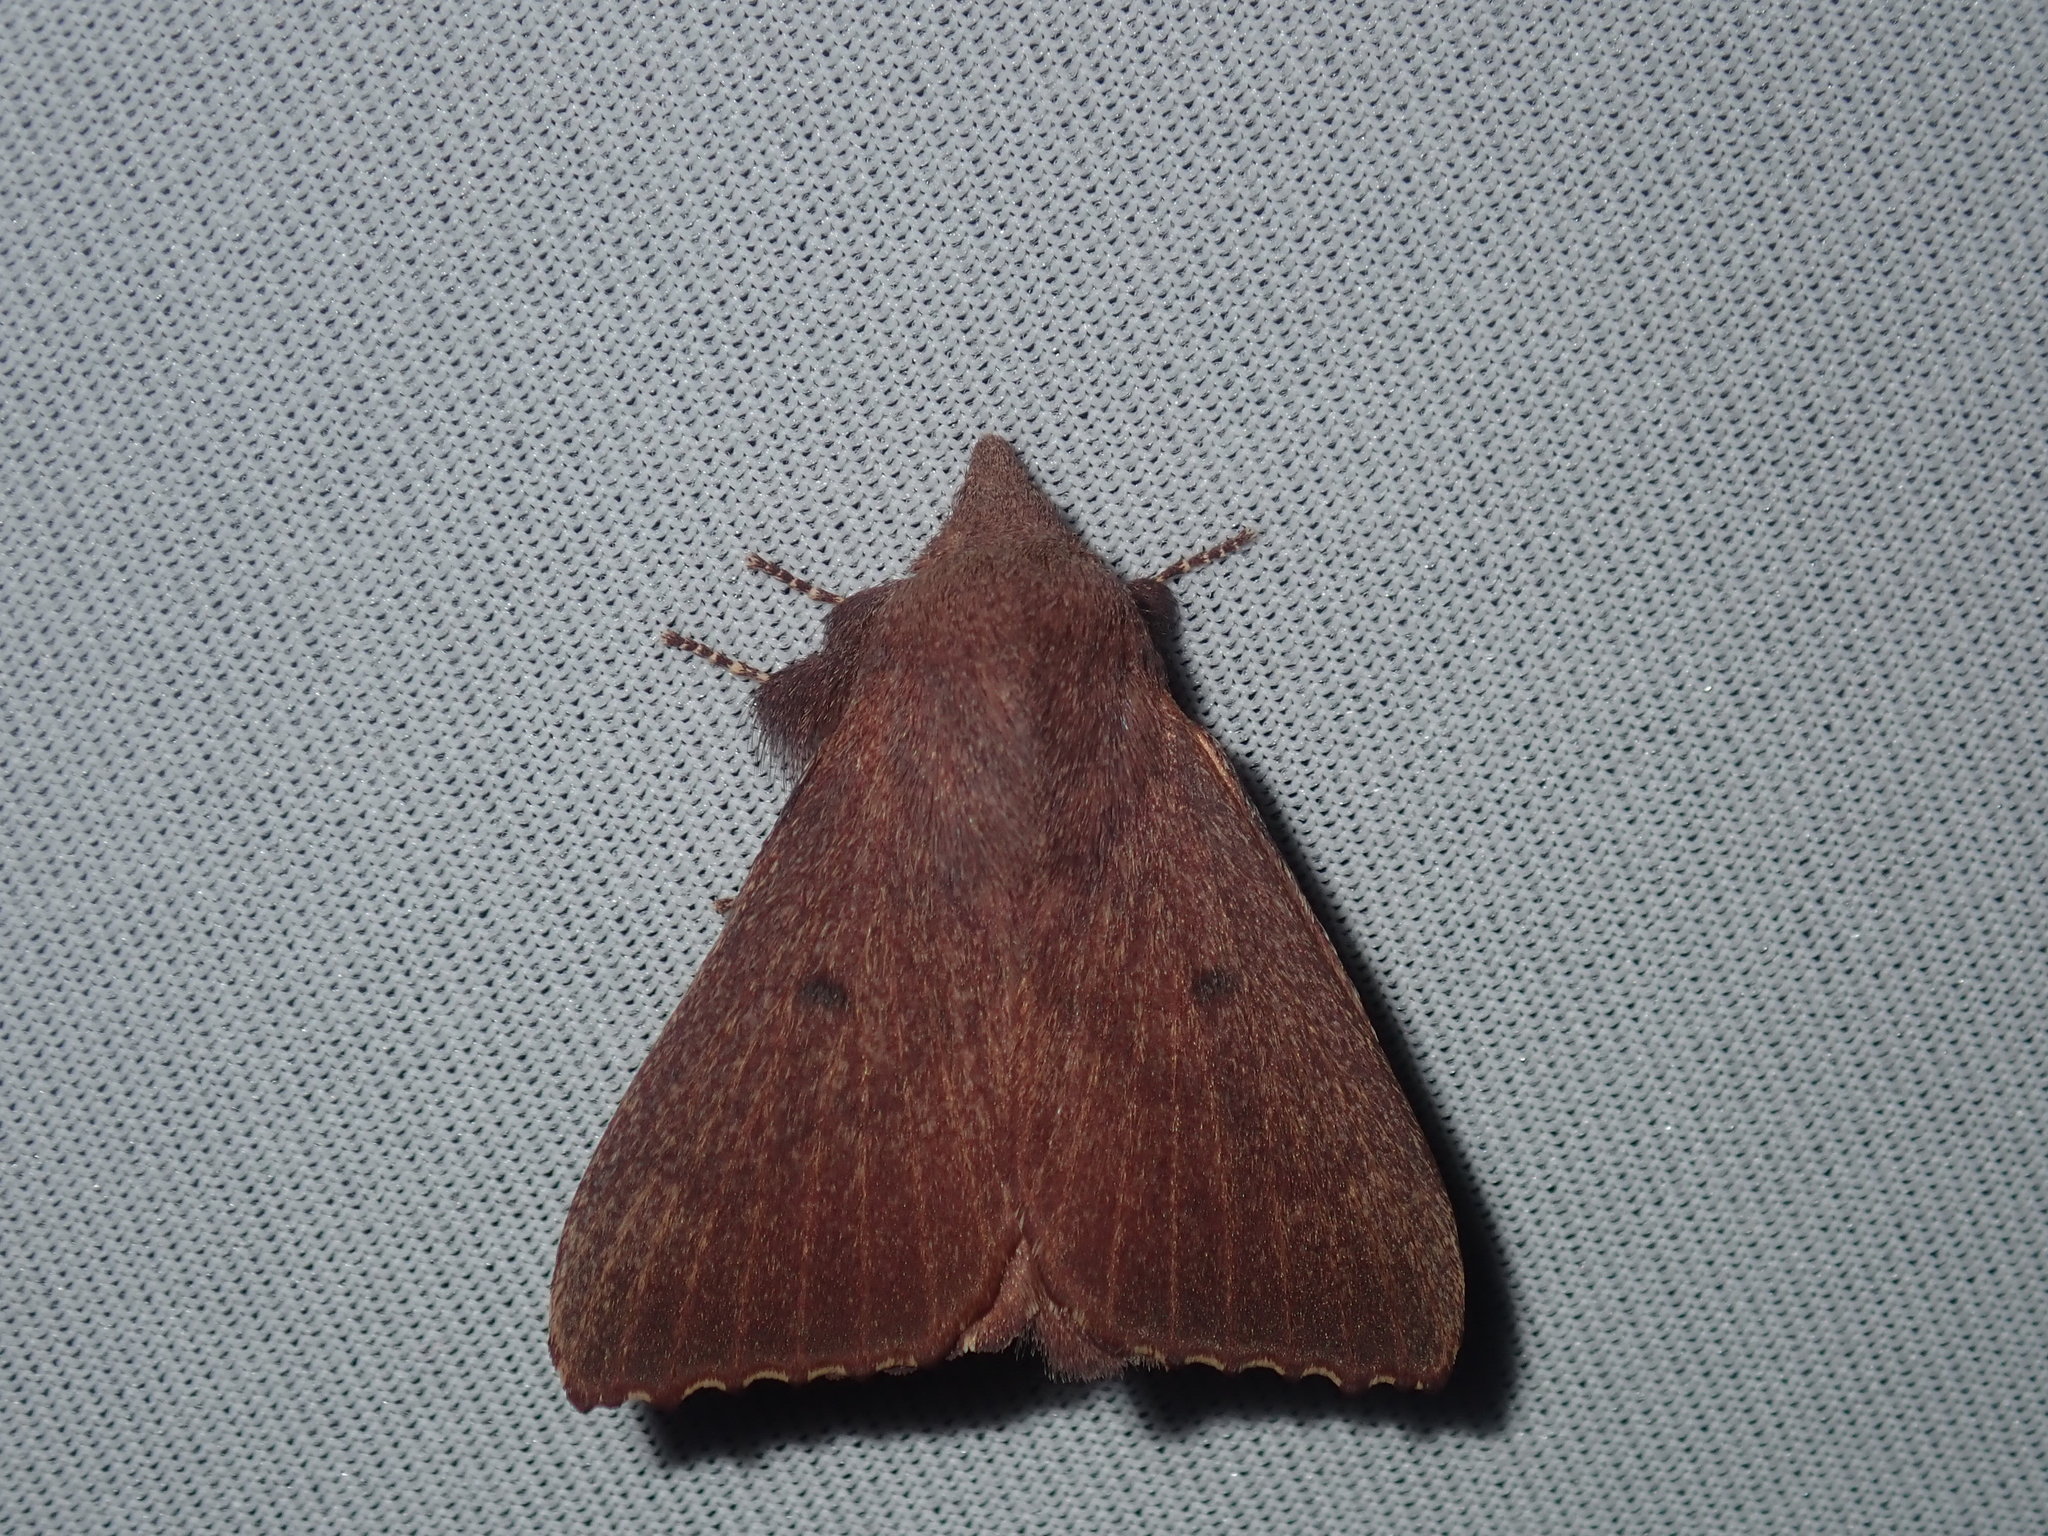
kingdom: Animalia
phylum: Arthropoda
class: Insecta
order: Lepidoptera
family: Lasiocampidae
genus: Pararguda
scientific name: Pararguda crenulata
